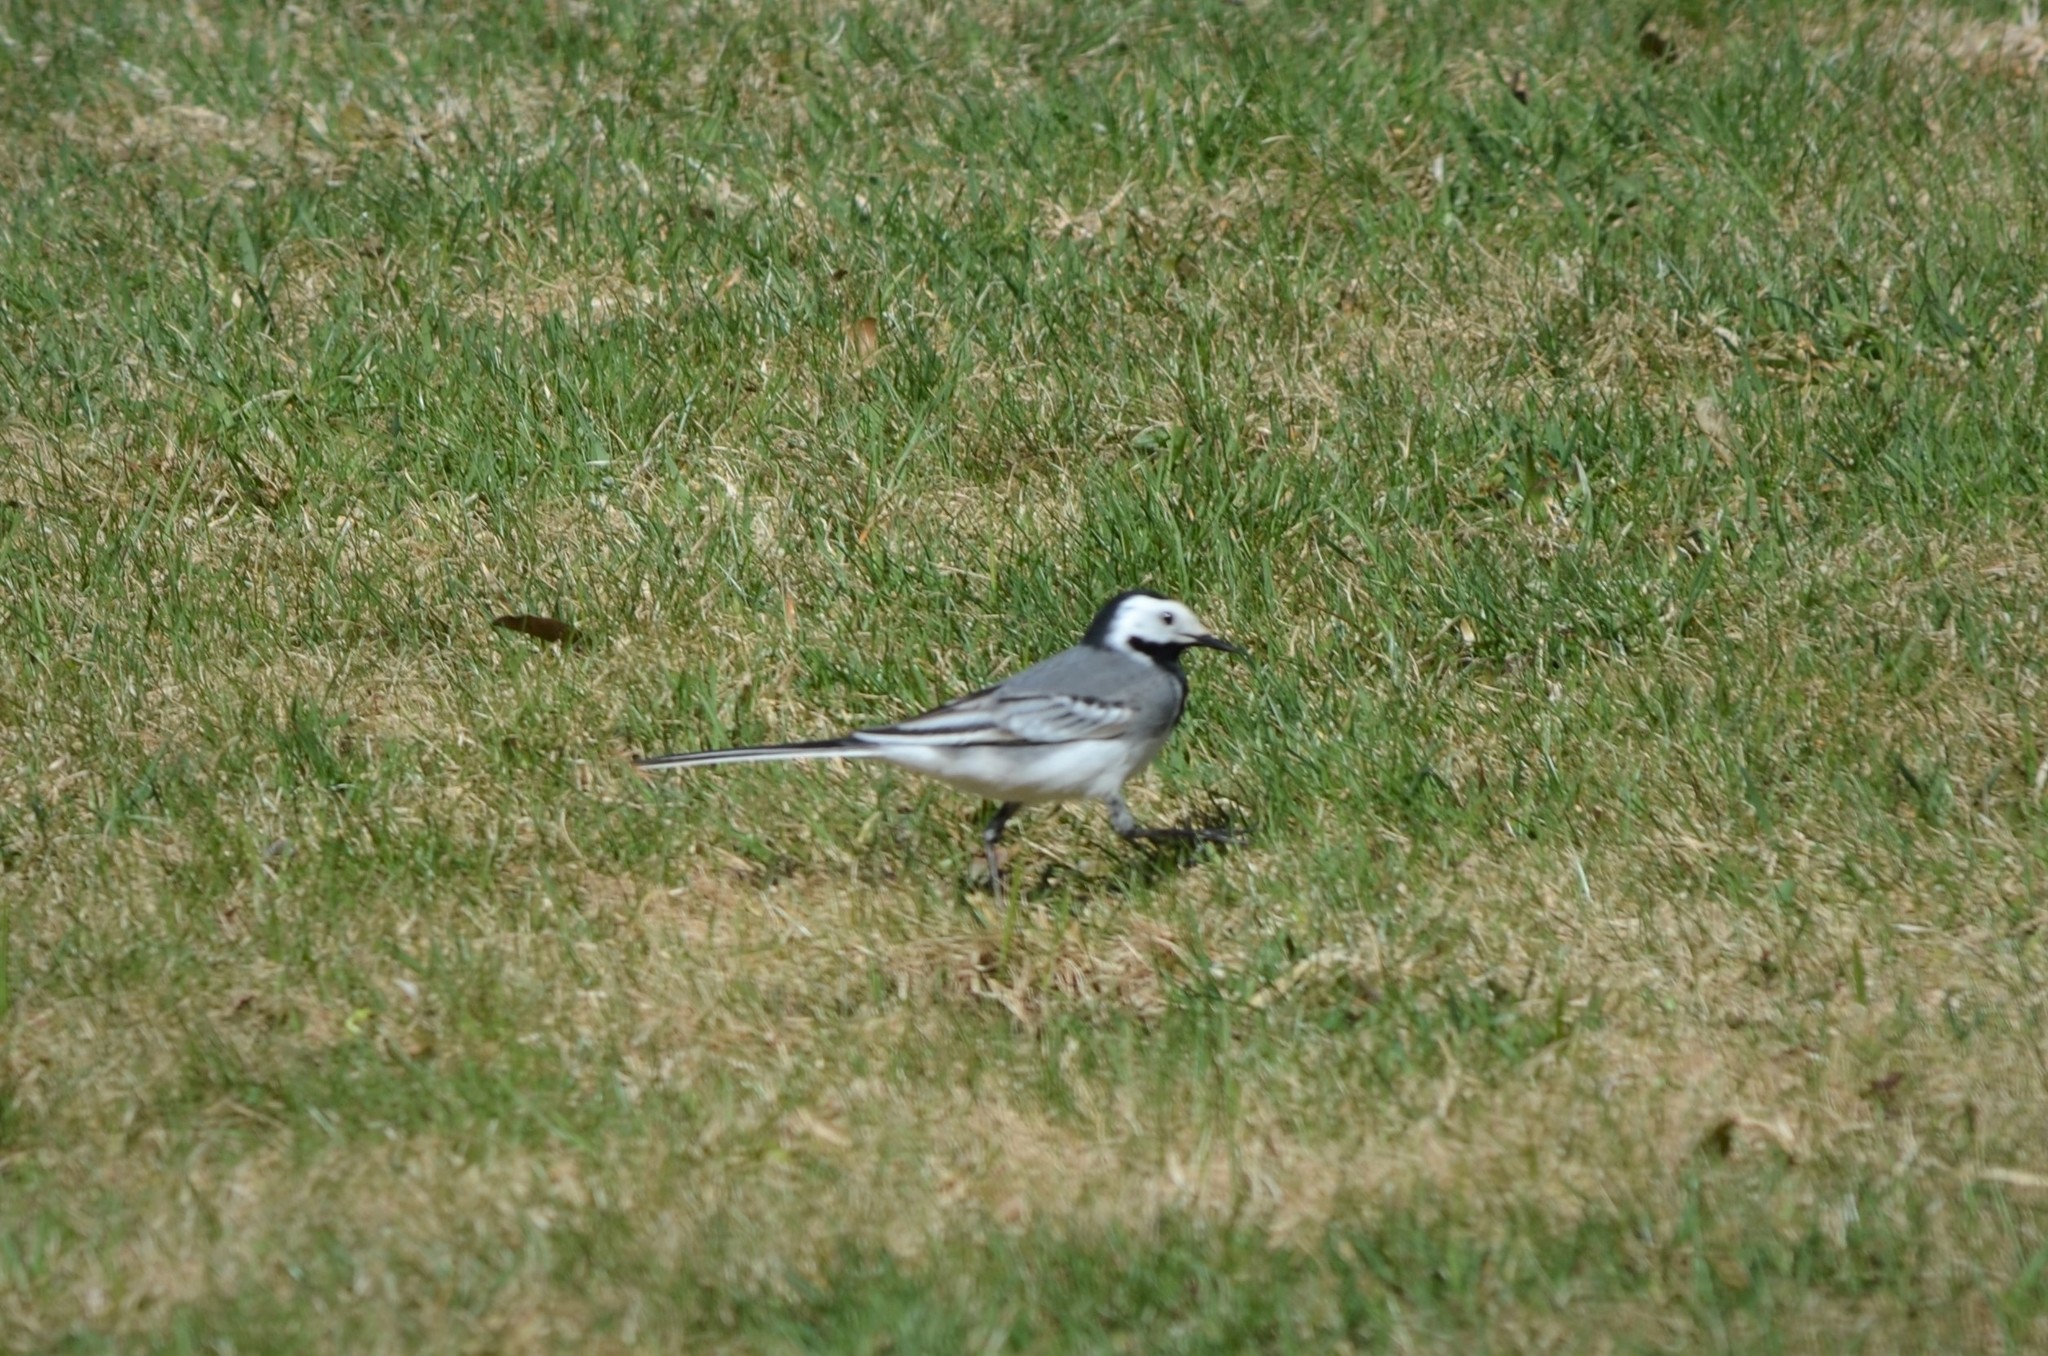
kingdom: Animalia
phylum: Chordata
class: Aves
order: Passeriformes
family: Motacillidae
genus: Motacilla
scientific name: Motacilla alba
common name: White wagtail
